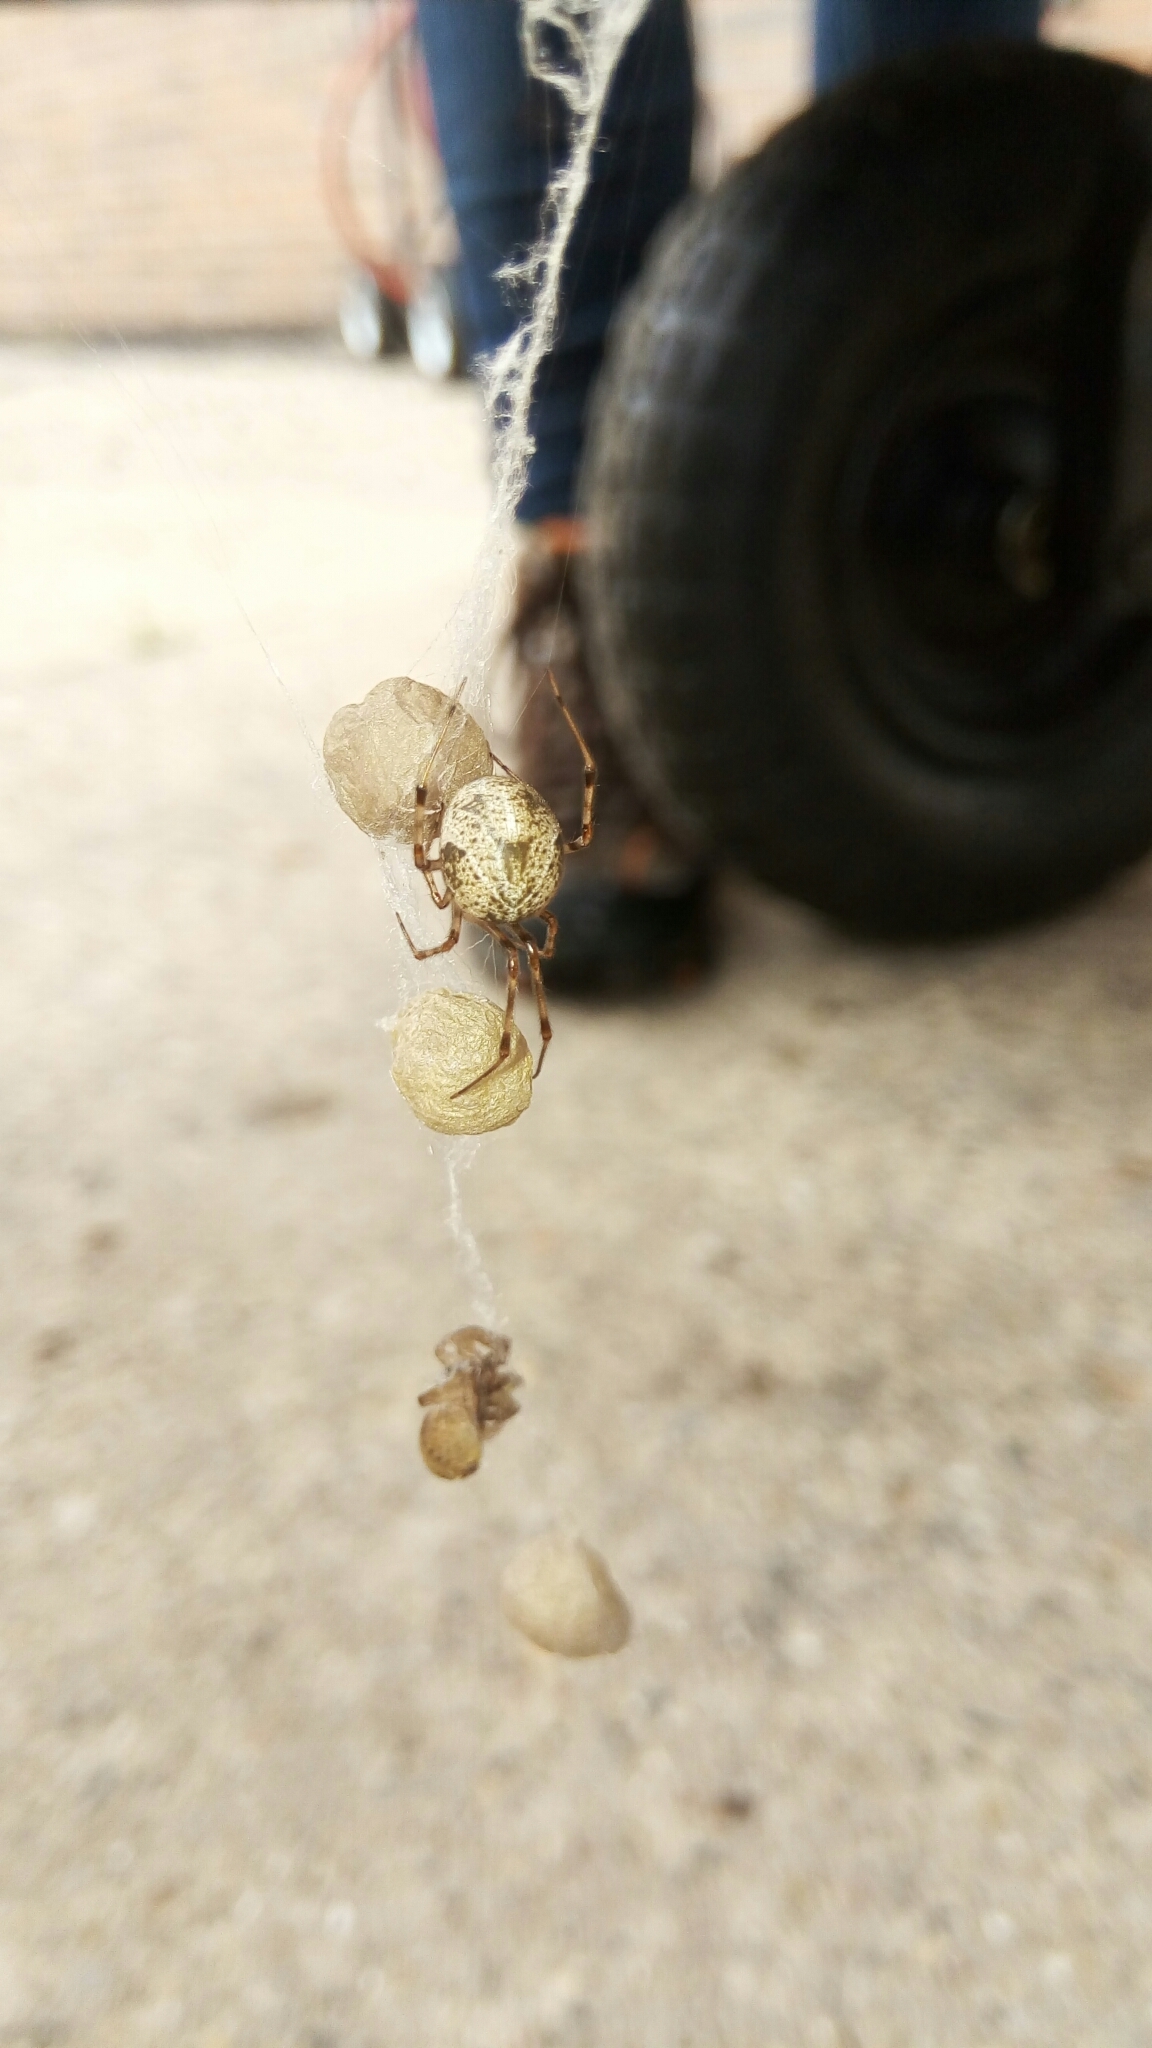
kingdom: Animalia
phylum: Arthropoda
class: Arachnida
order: Araneae
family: Theridiidae
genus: Parasteatoda
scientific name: Parasteatoda tepidariorum
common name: Common house spider
